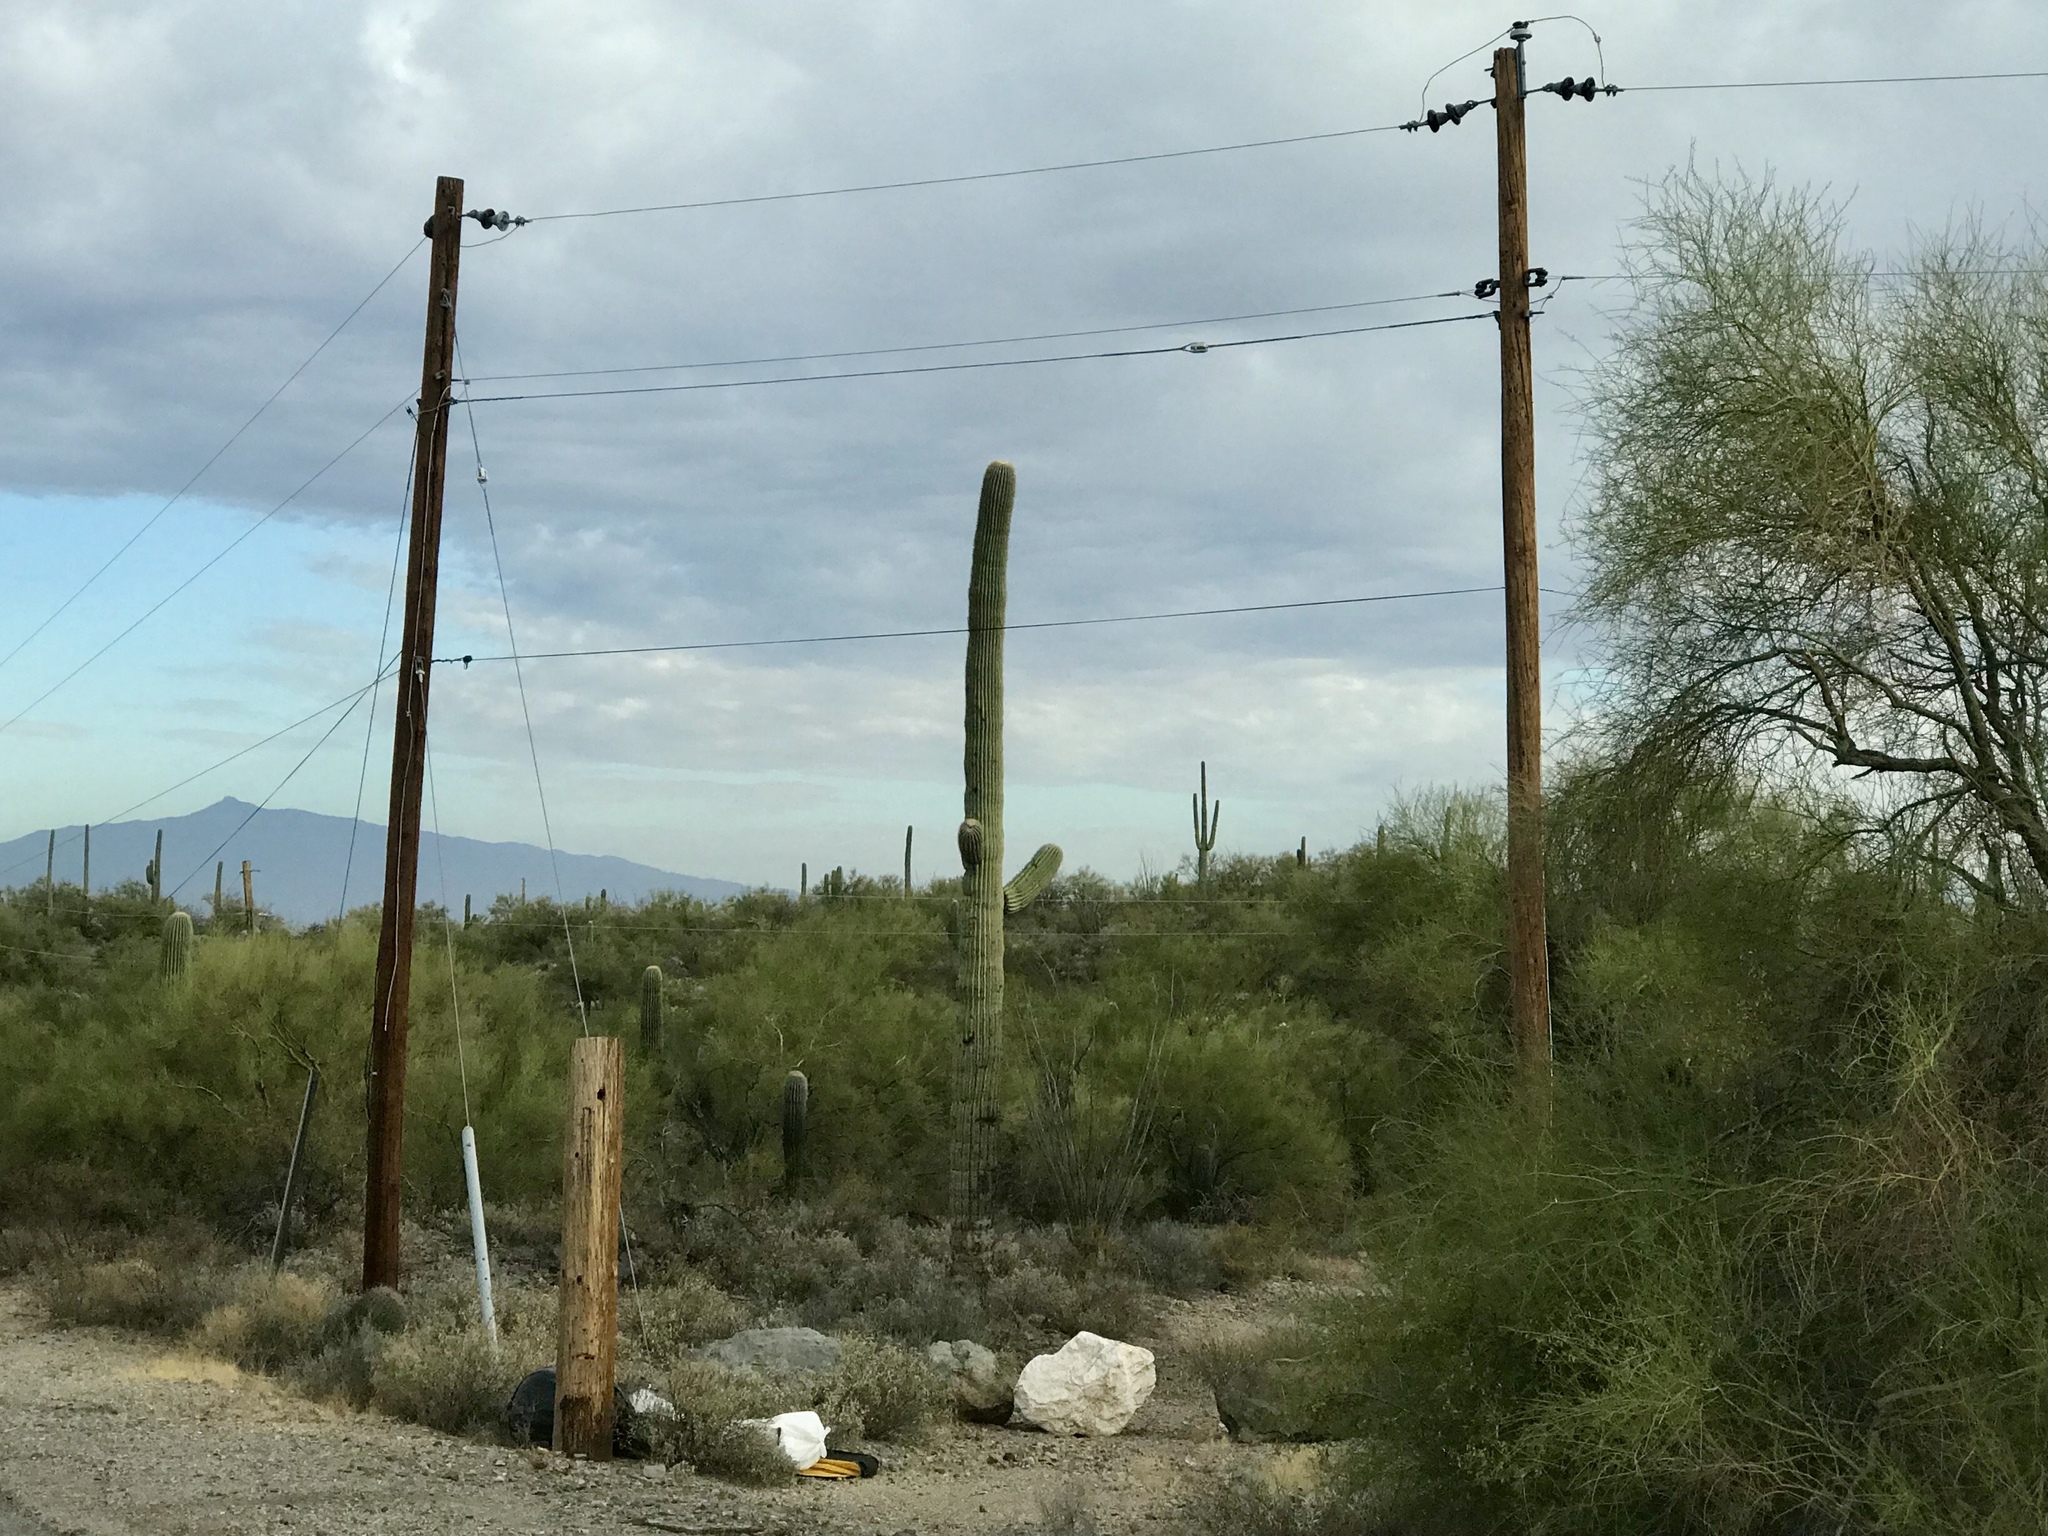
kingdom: Plantae
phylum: Tracheophyta
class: Magnoliopsida
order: Caryophyllales
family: Cactaceae
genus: Carnegiea
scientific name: Carnegiea gigantea
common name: Saguaro
